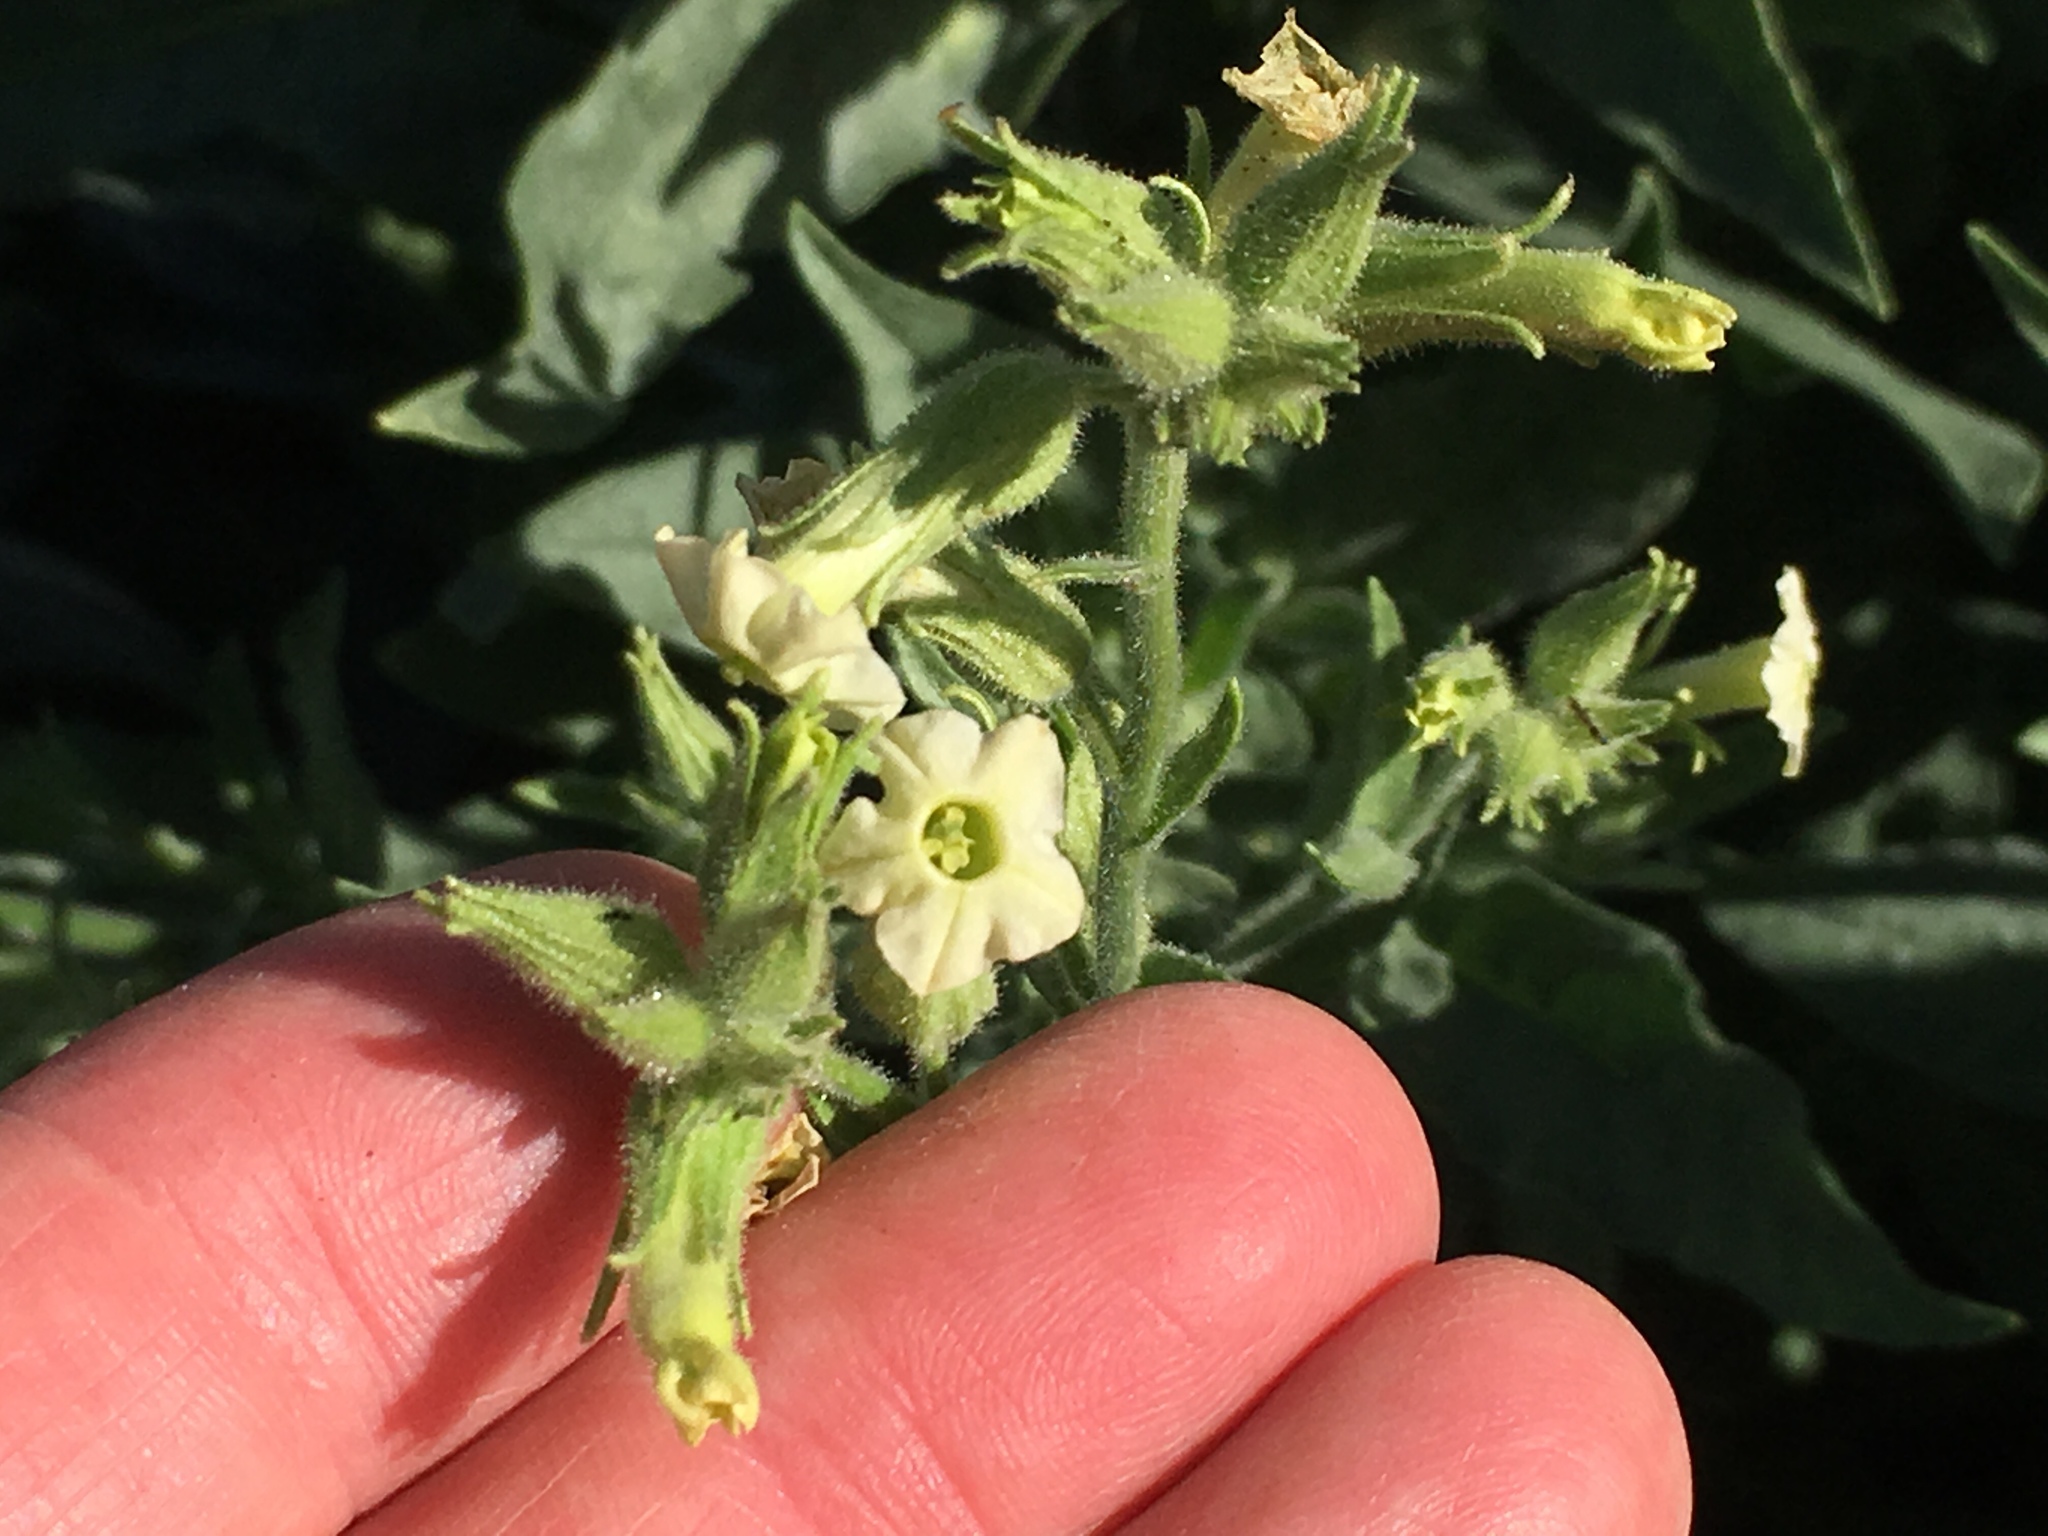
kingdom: Plantae
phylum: Tracheophyta
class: Magnoliopsida
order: Solanales
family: Solanaceae
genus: Nicotiana
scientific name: Nicotiana obtusifolia
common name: Desert tobacco
